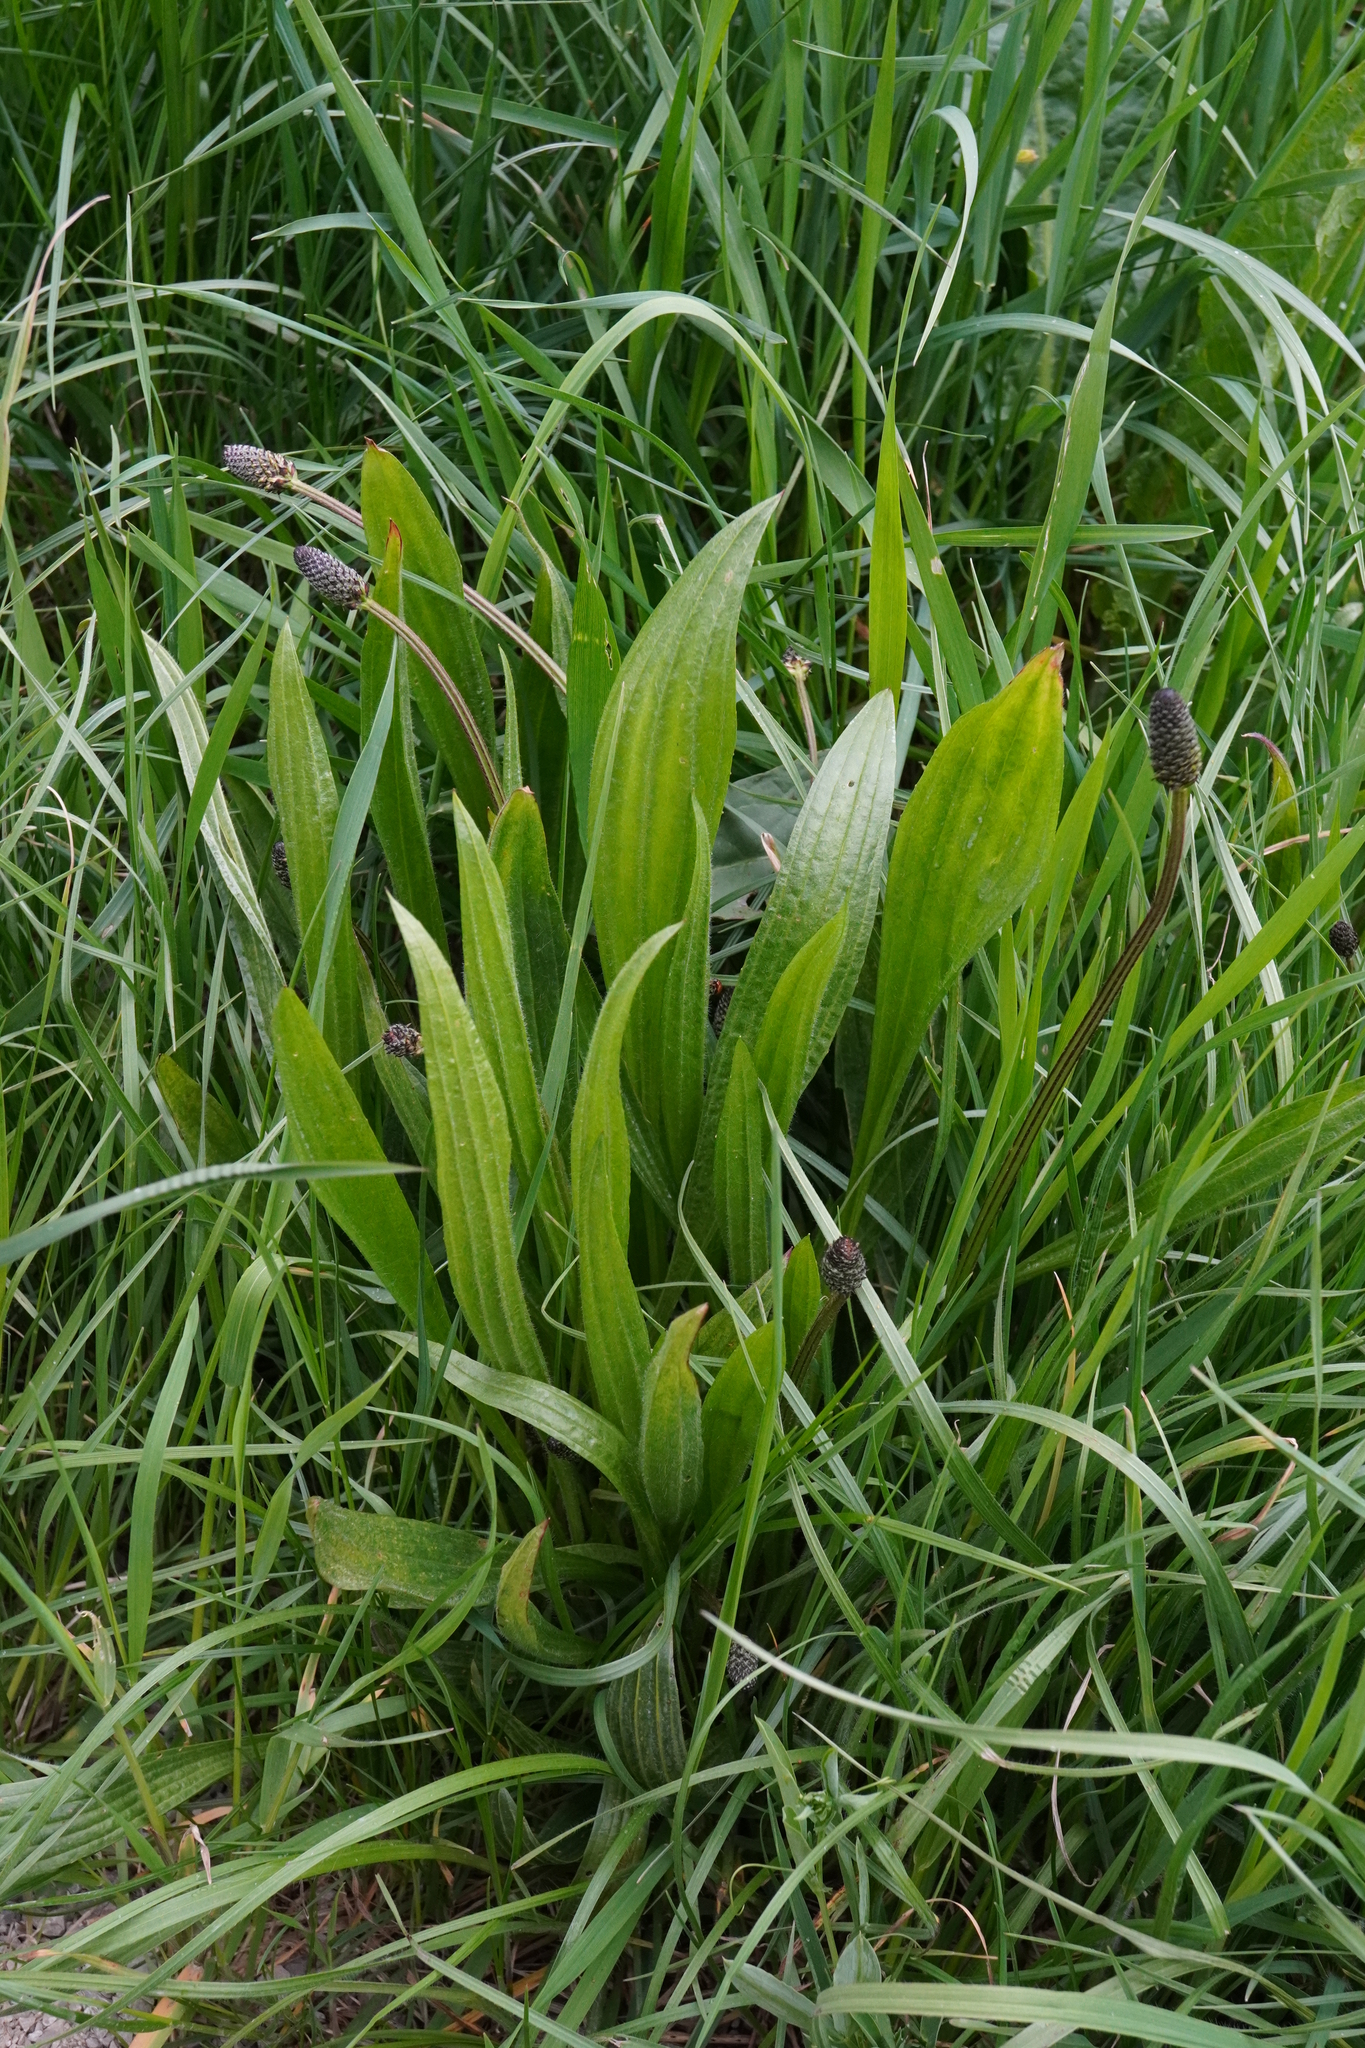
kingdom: Plantae
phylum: Tracheophyta
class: Magnoliopsida
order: Lamiales
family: Plantaginaceae
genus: Plantago
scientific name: Plantago lanceolata
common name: Ribwort plantain
